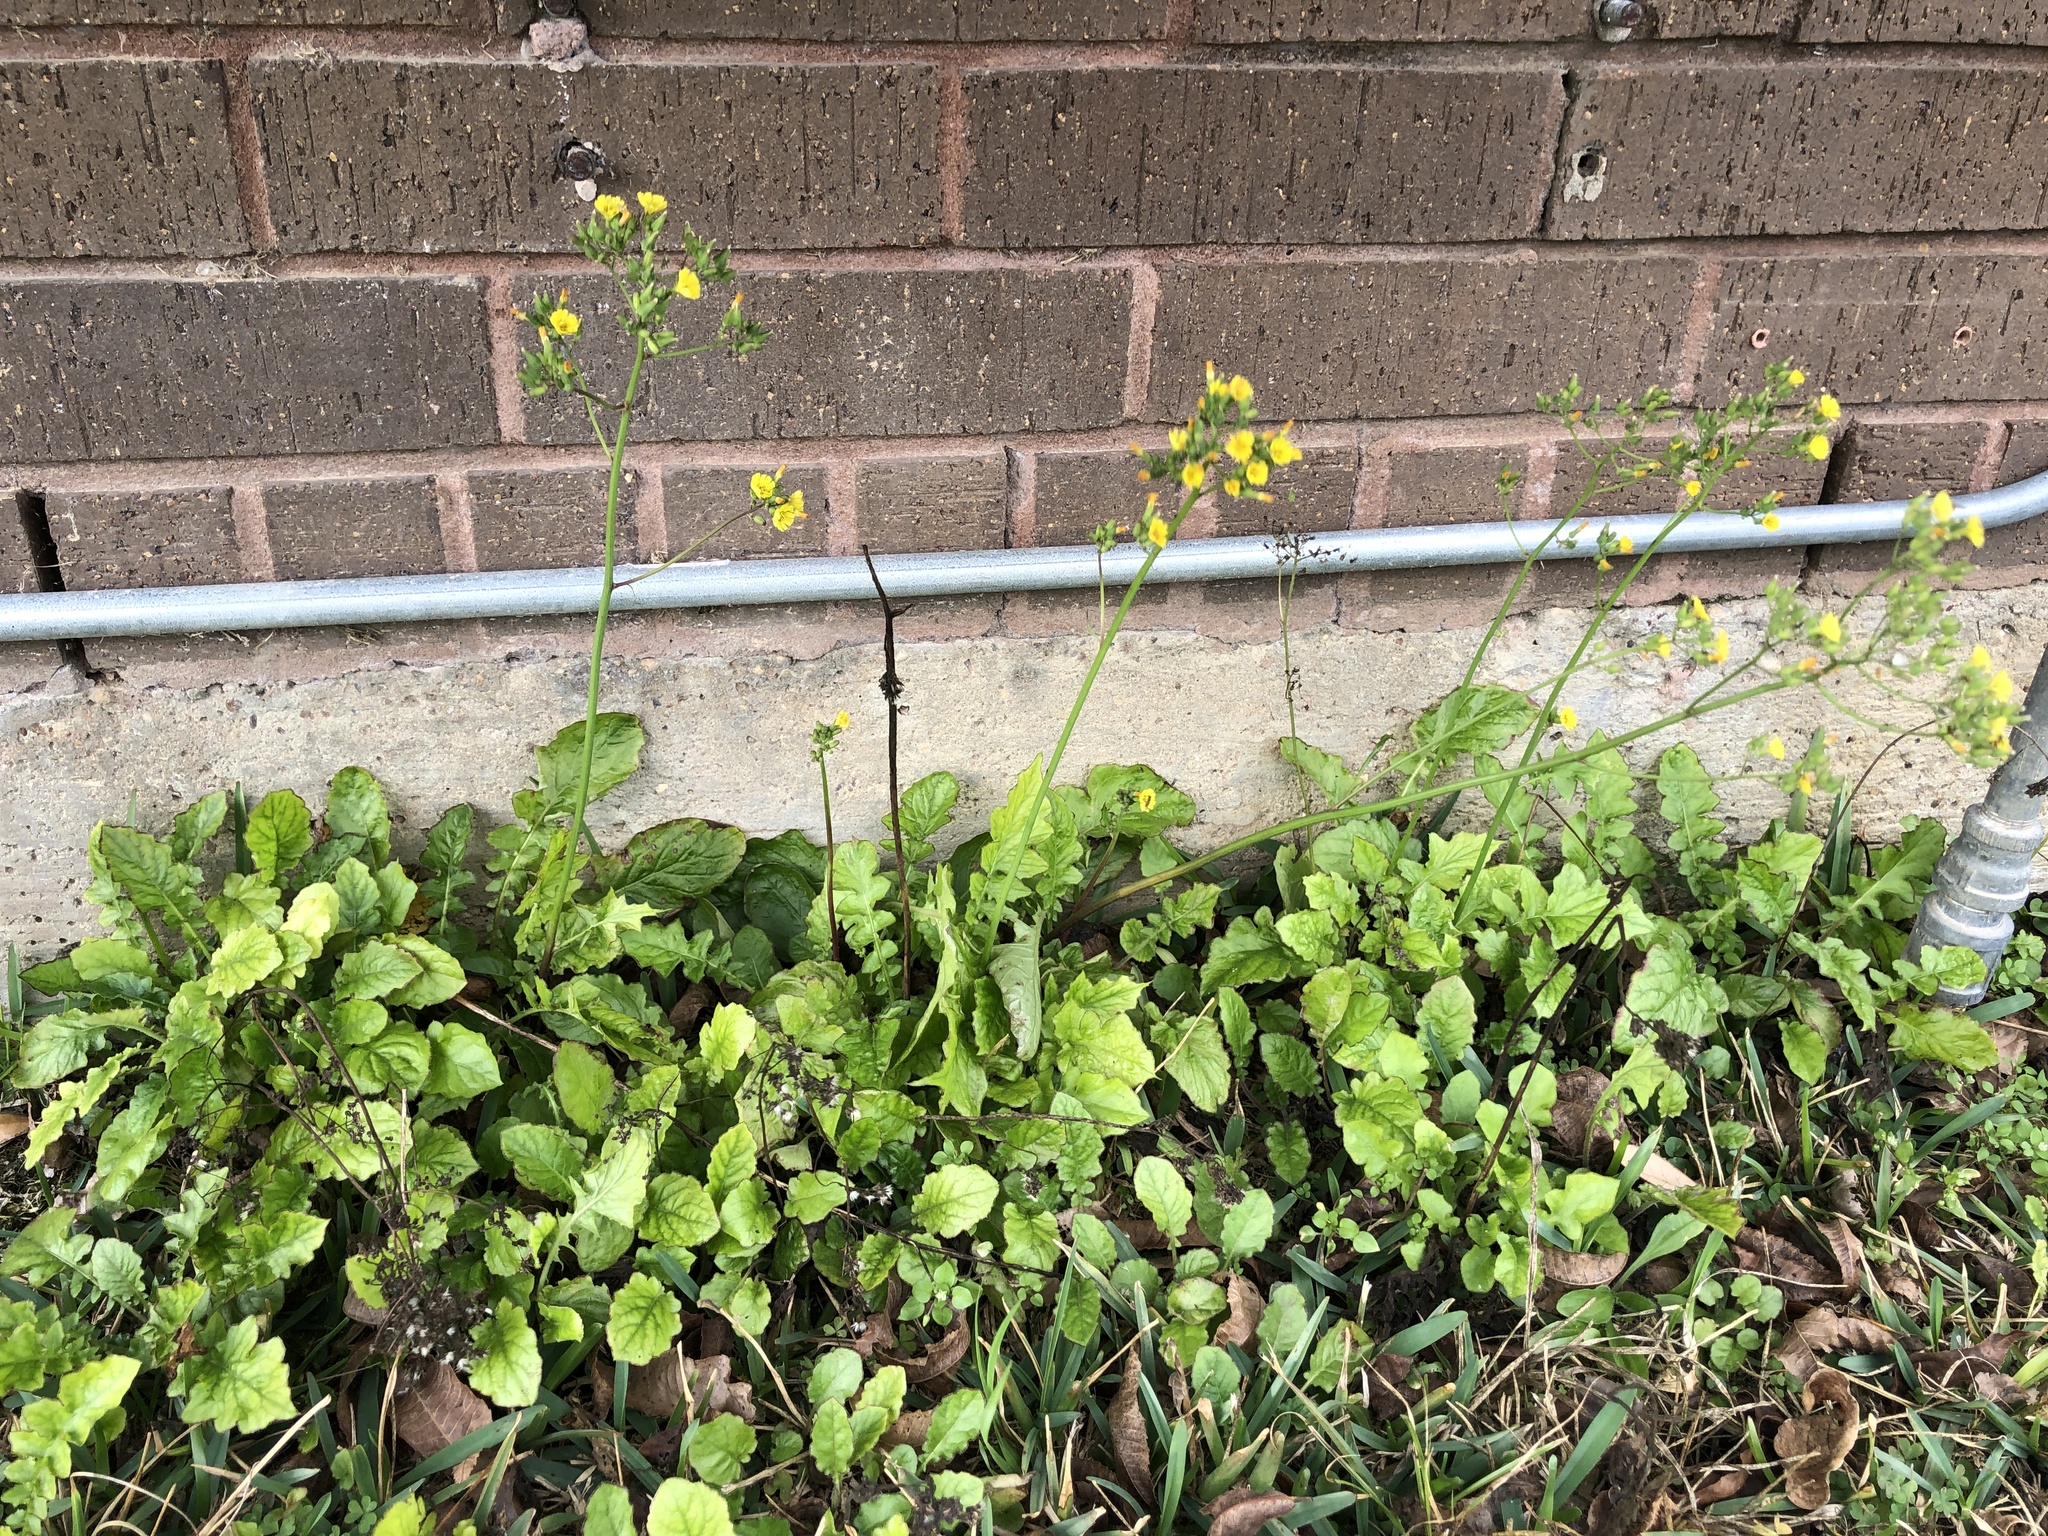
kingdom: Plantae
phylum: Tracheophyta
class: Magnoliopsida
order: Asterales
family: Asteraceae
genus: Youngia
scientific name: Youngia japonica
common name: Oriental false hawksbeard
